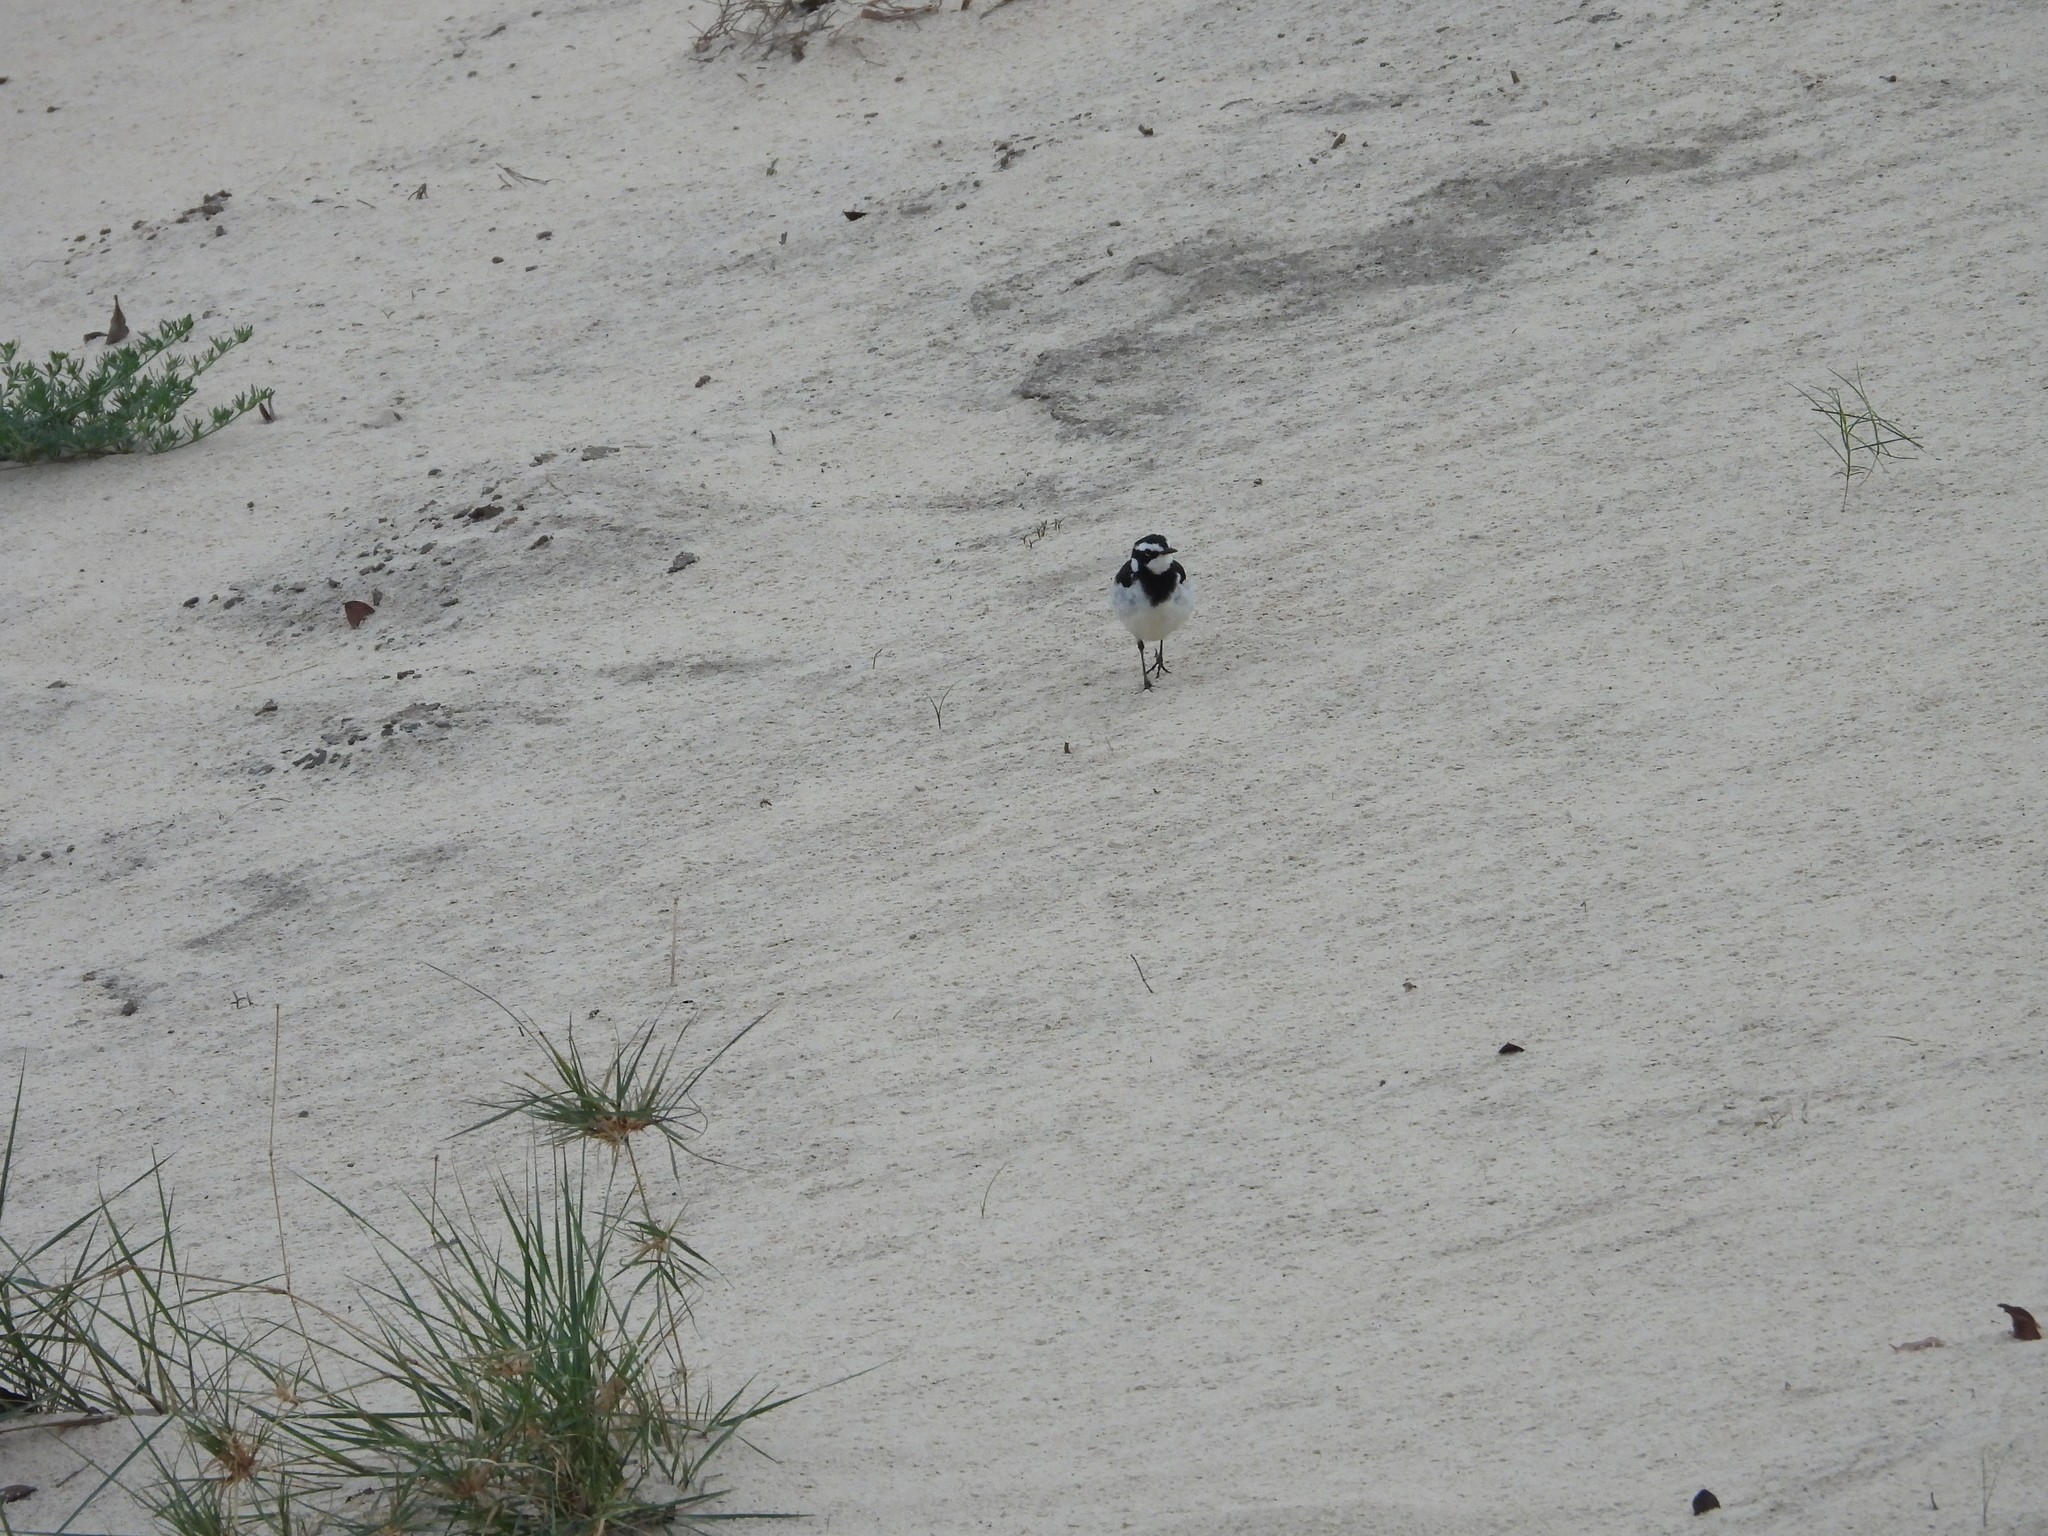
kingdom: Animalia
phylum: Chordata
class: Aves
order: Passeriformes
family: Motacillidae
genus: Motacilla
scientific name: Motacilla aguimp
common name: African pied wagtail
